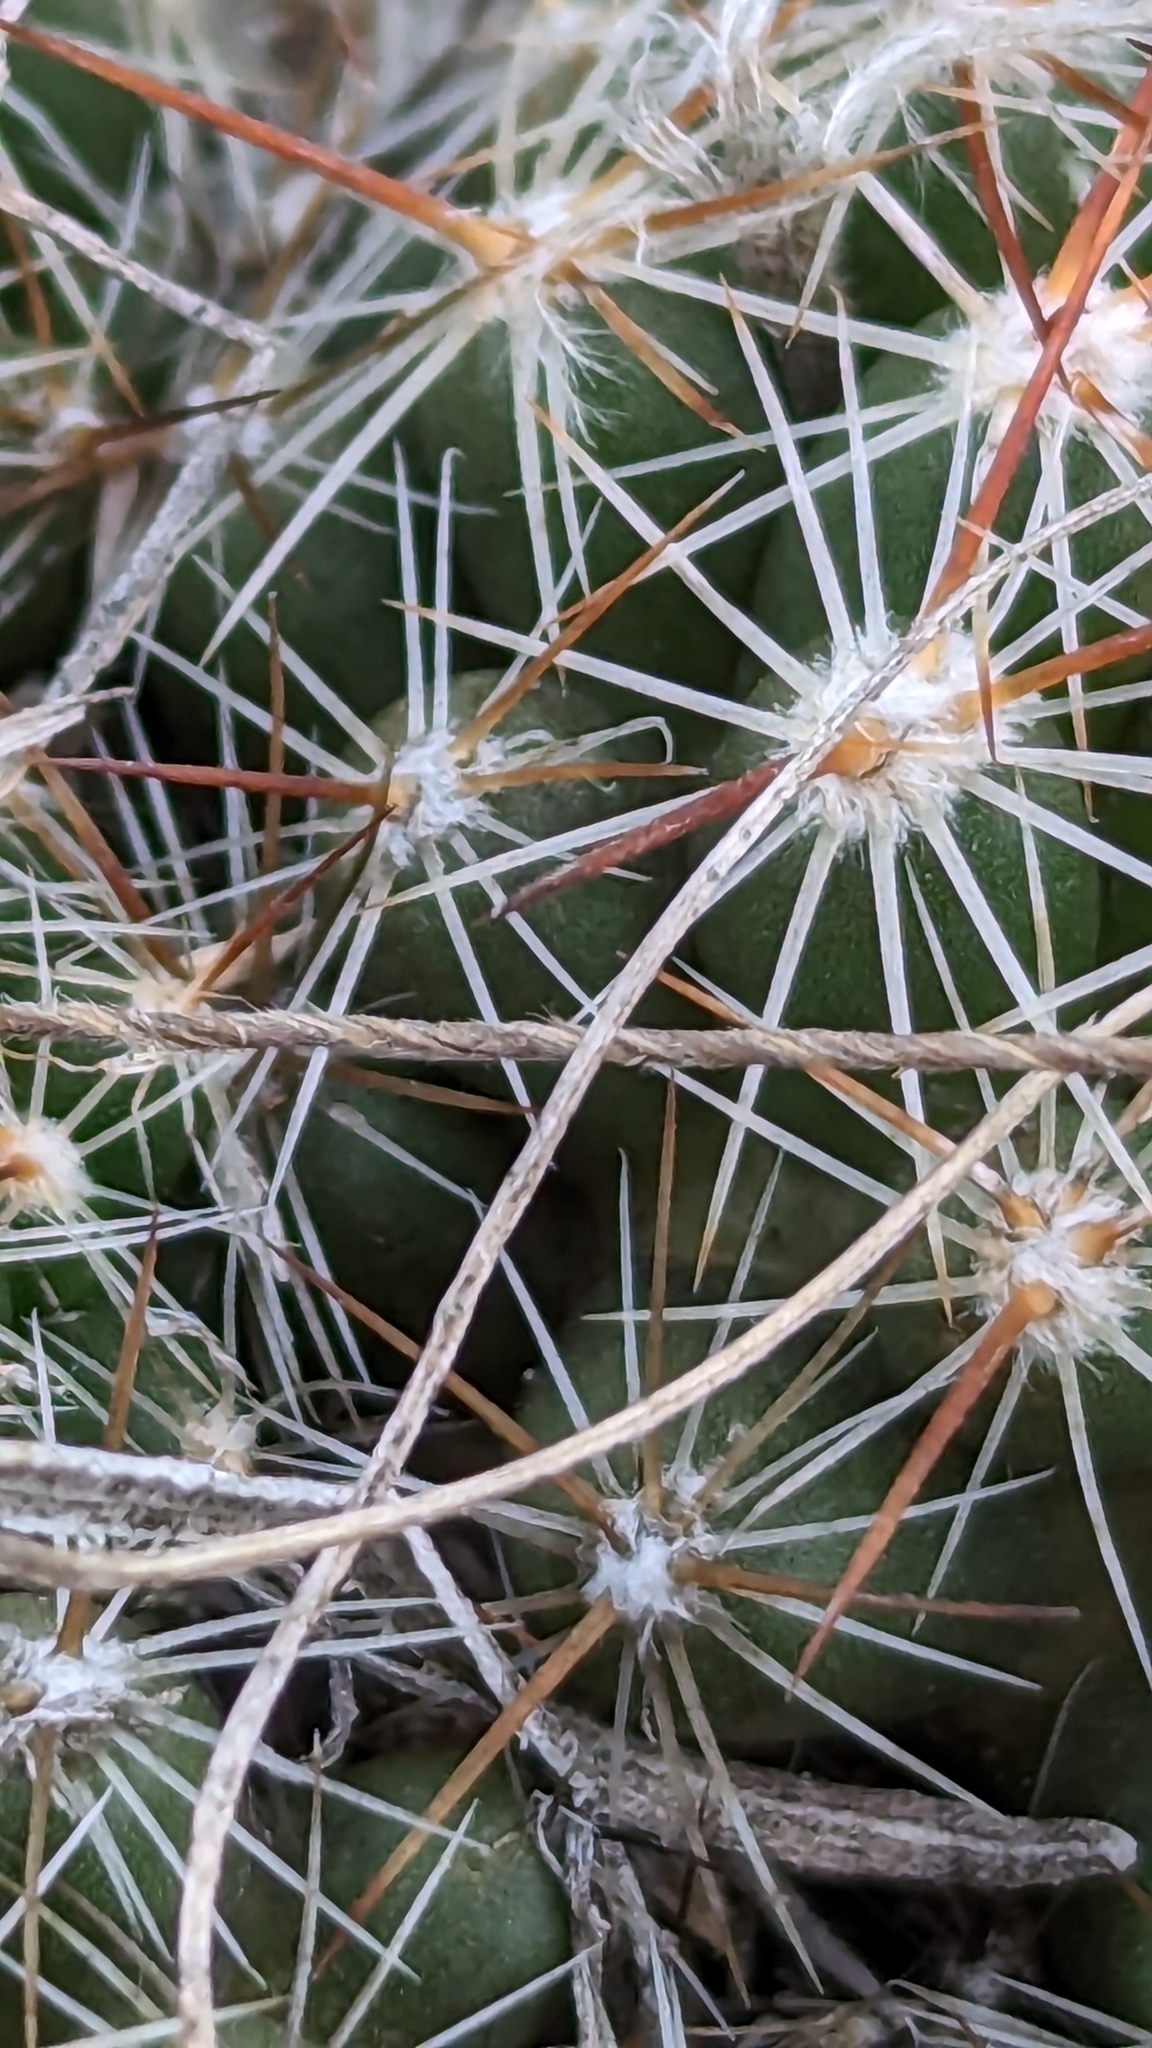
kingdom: Plantae
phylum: Tracheophyta
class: Magnoliopsida
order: Caryophyllales
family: Cactaceae
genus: Pelecyphora
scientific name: Pelecyphora vivipara
